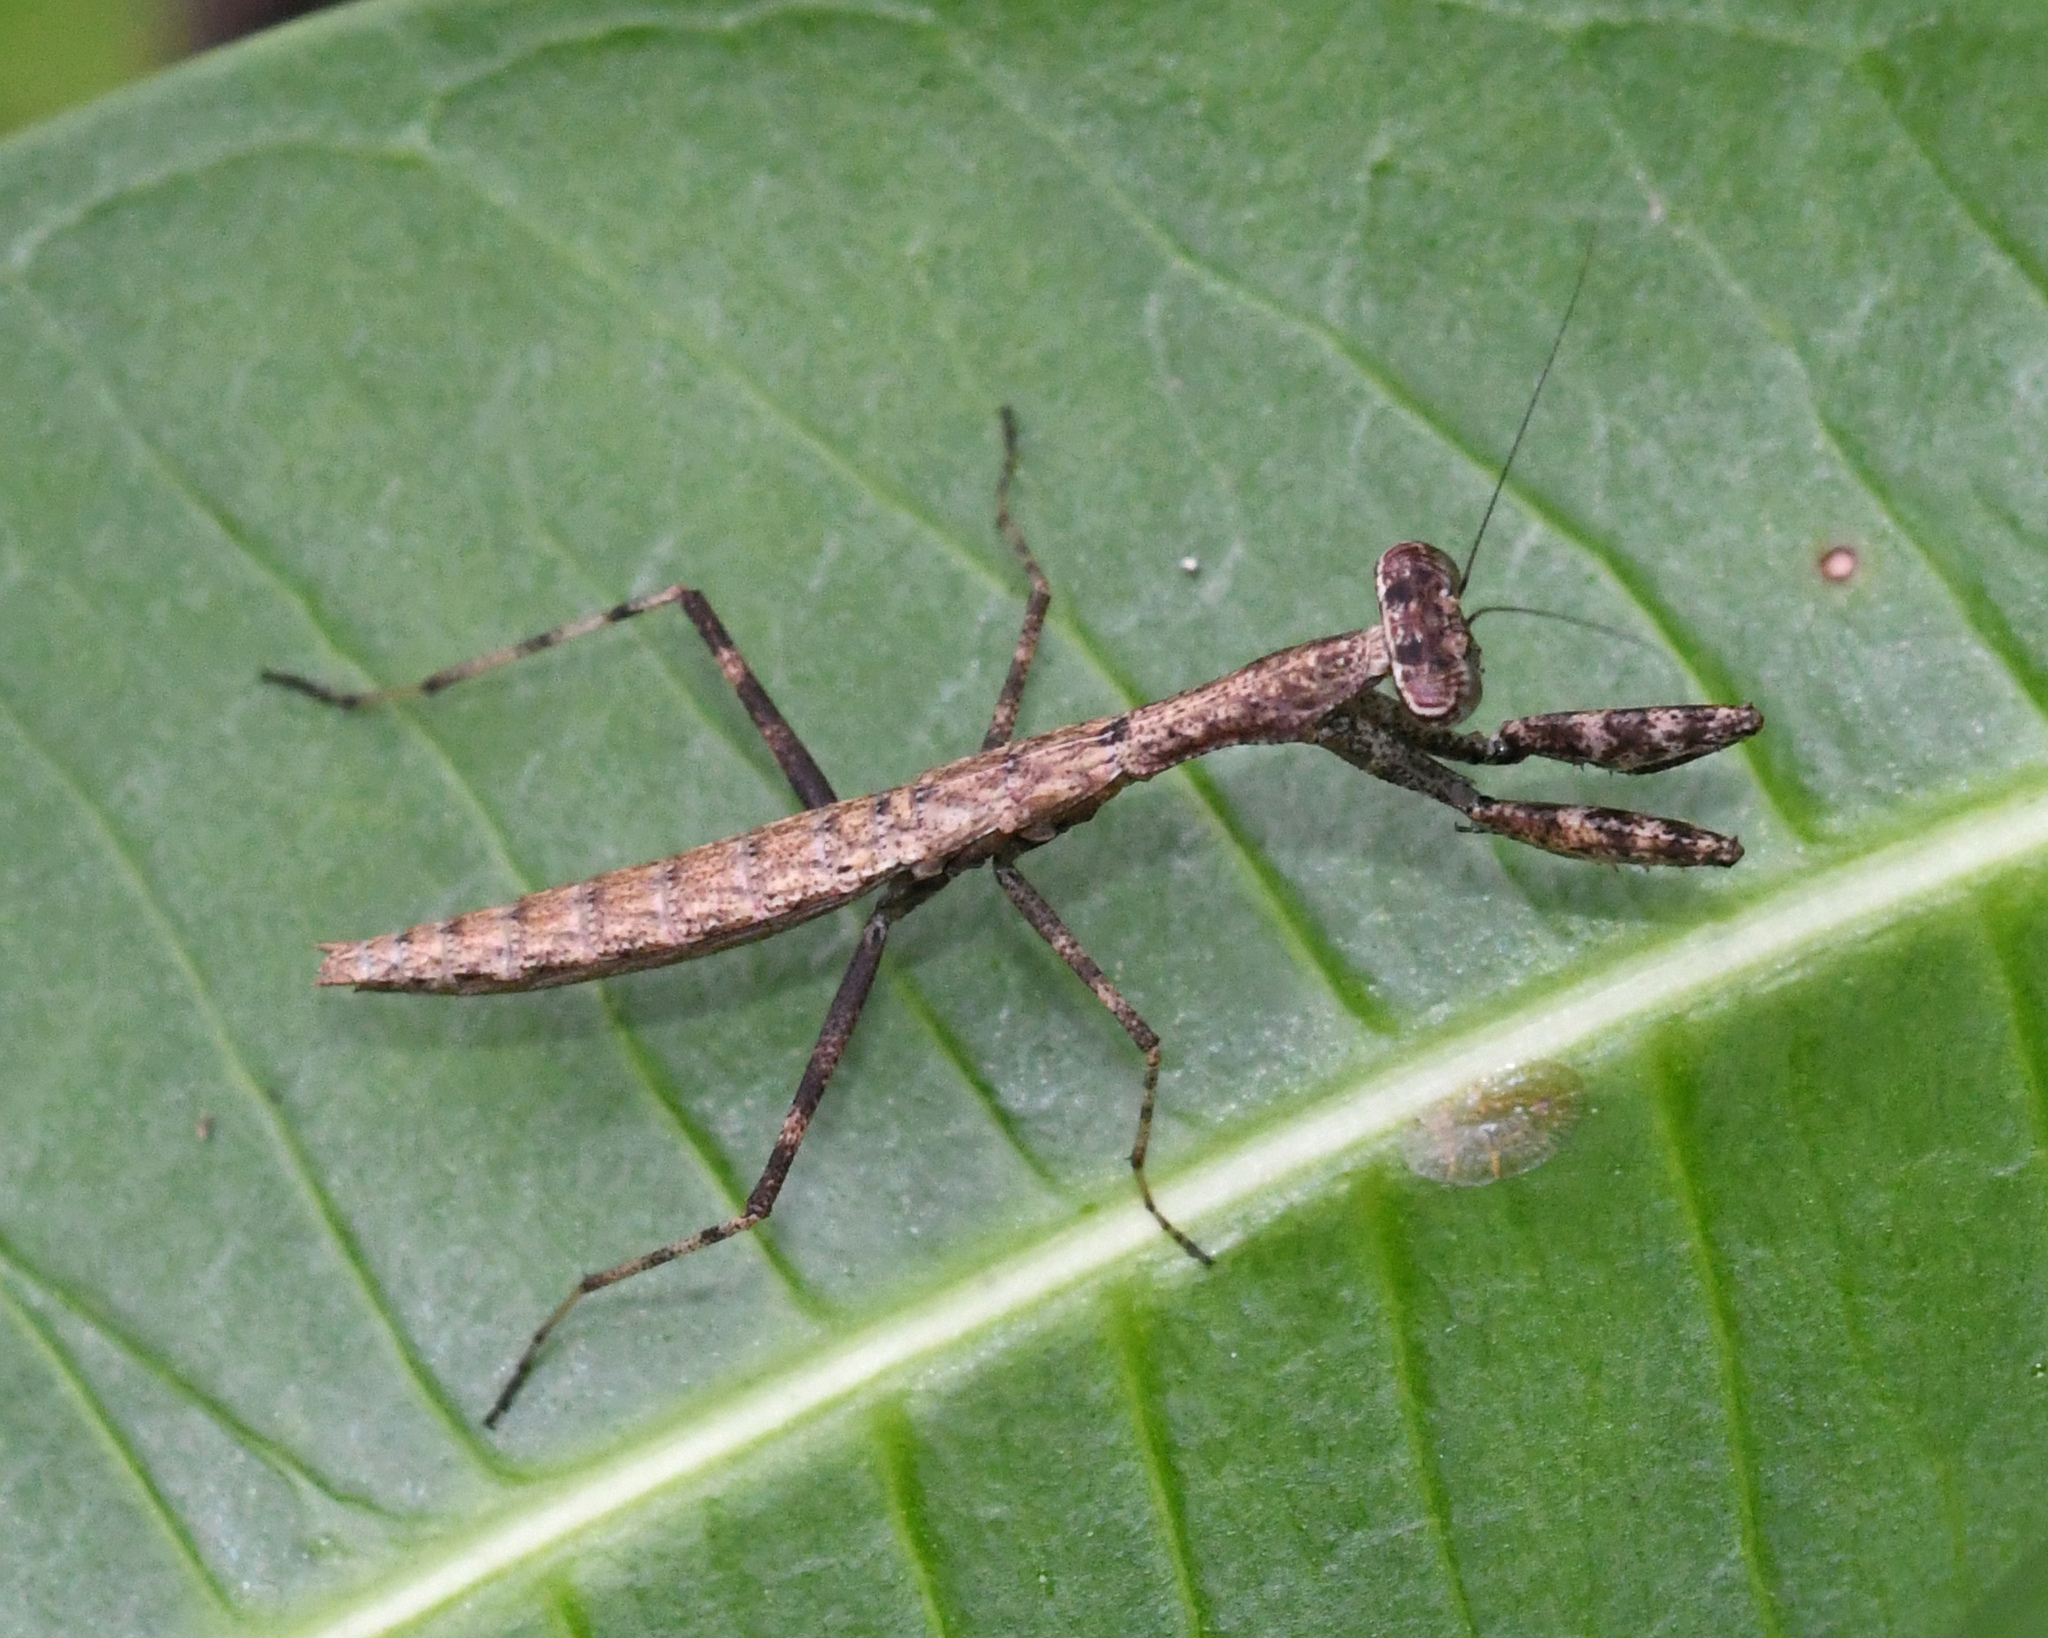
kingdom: Animalia
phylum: Arthropoda
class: Insecta
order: Mantodea
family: Epaphroditidae
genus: Callimantis
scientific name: Callimantis antillarum
